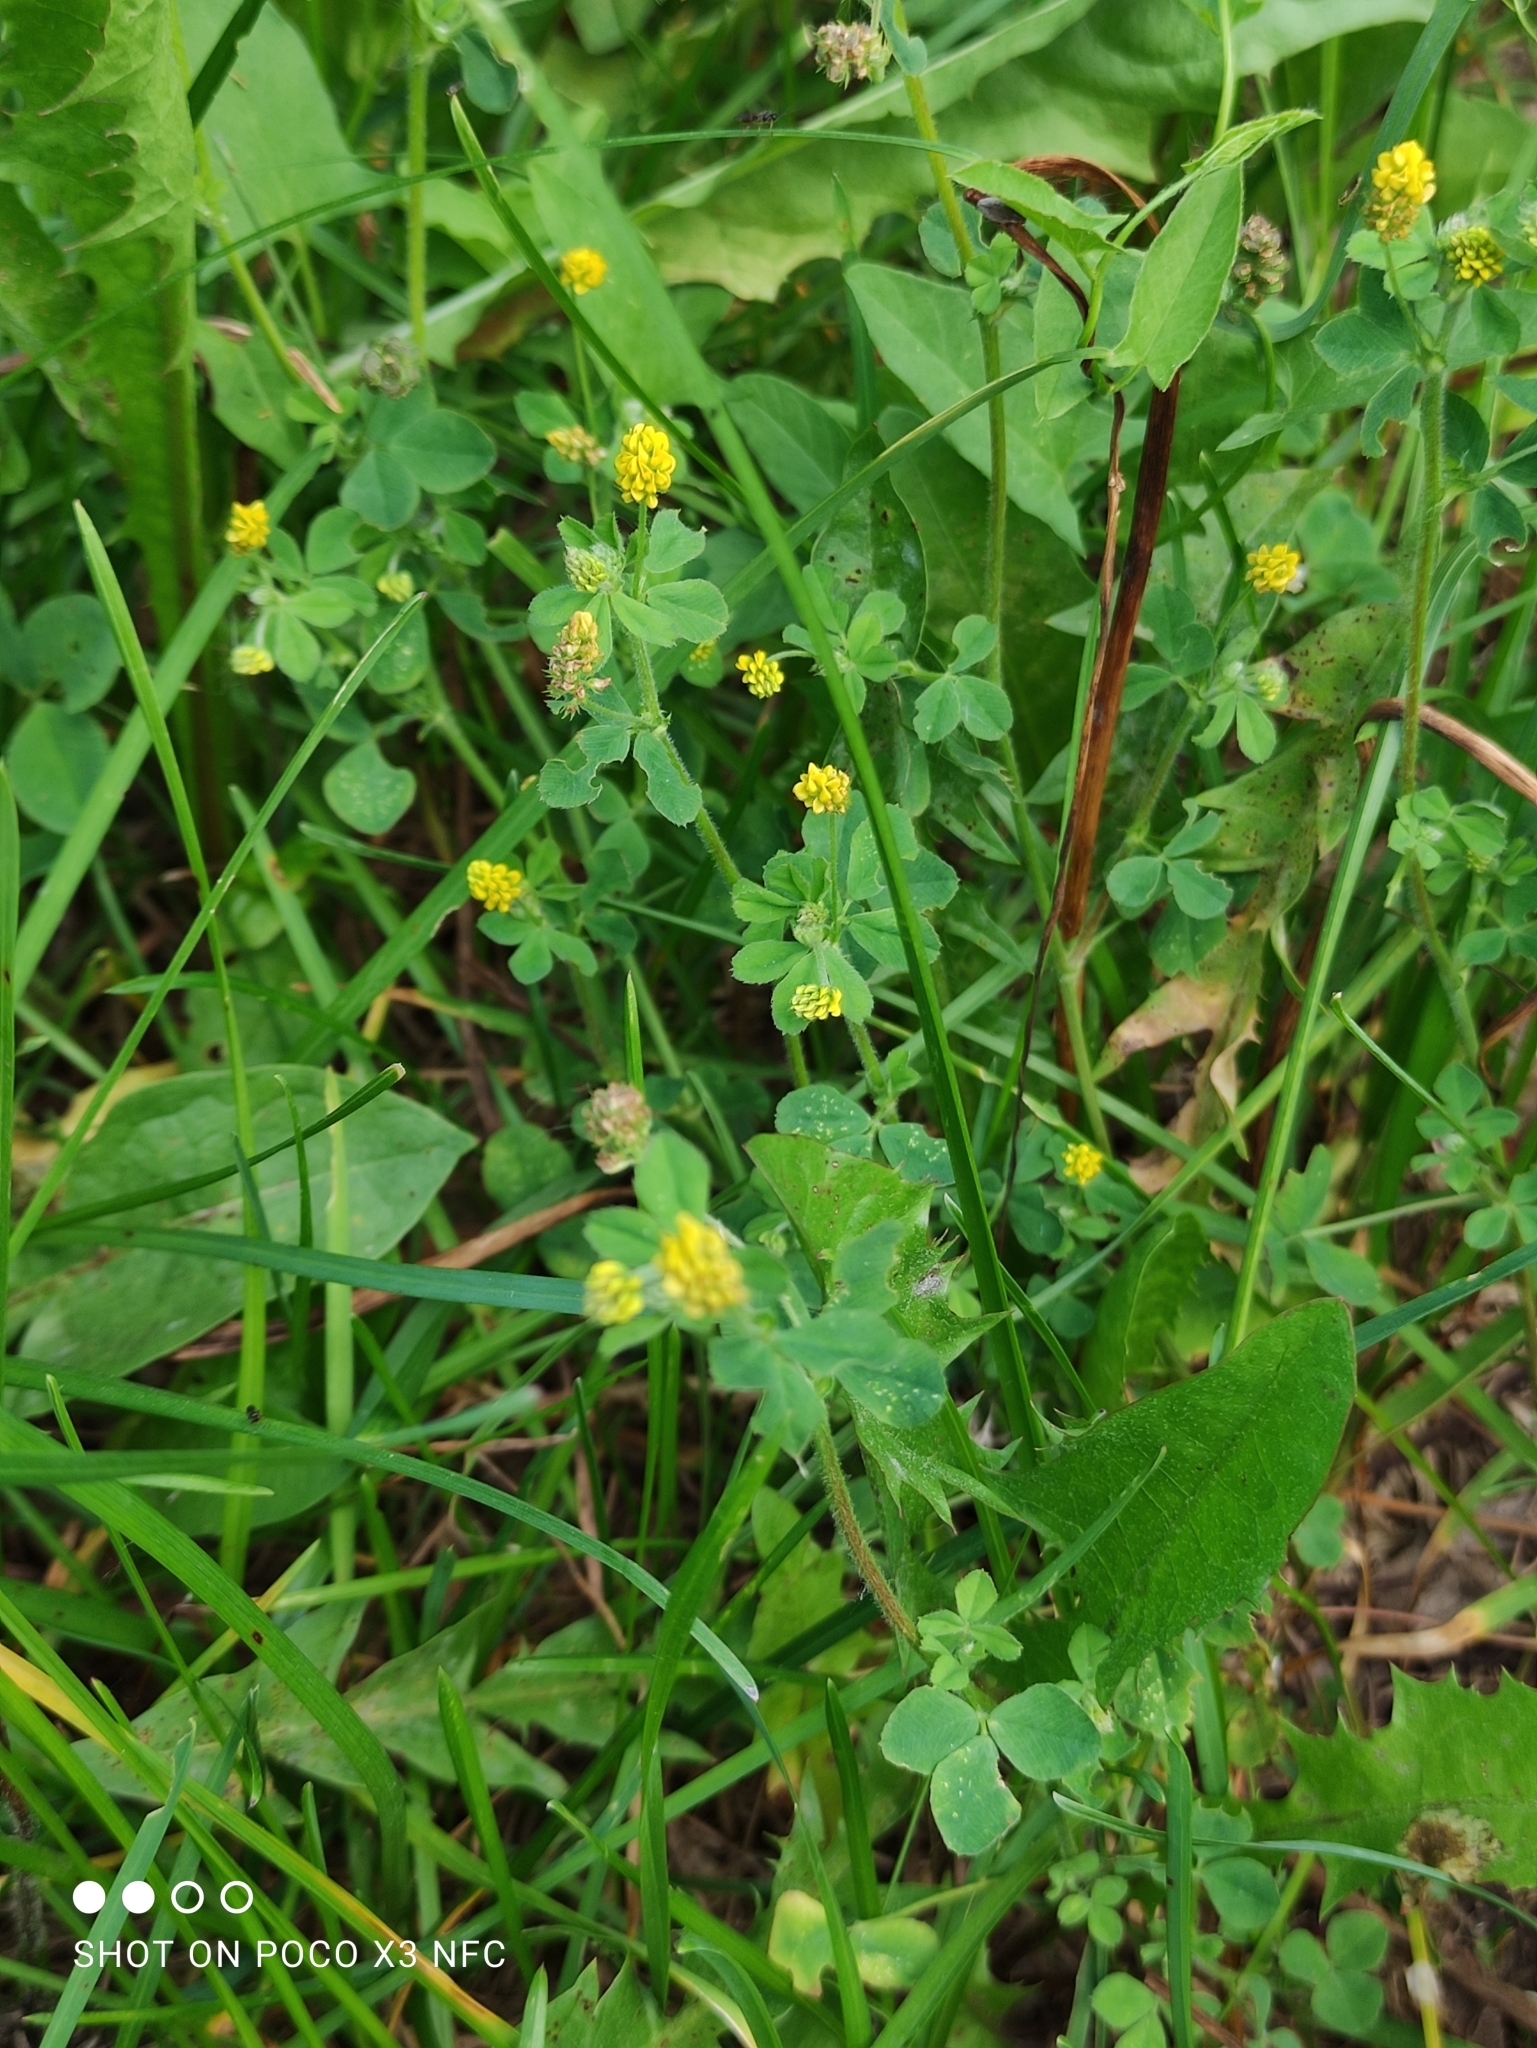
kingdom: Plantae
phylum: Tracheophyta
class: Magnoliopsida
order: Fabales
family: Fabaceae
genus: Medicago
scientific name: Medicago lupulina
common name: Black medick
